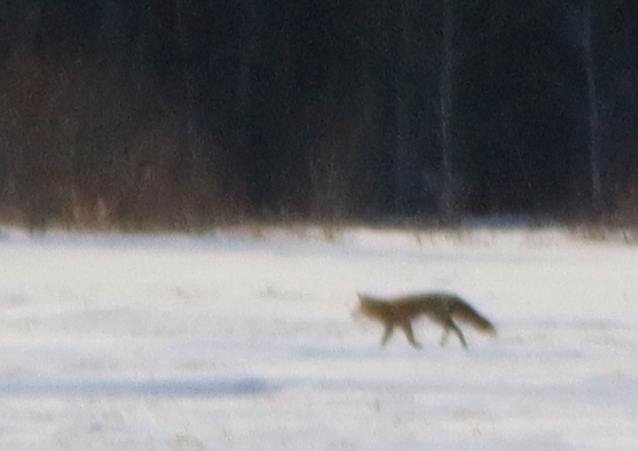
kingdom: Animalia
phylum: Chordata
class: Mammalia
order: Carnivora
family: Canidae
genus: Vulpes
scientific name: Vulpes vulpes
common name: Red fox
